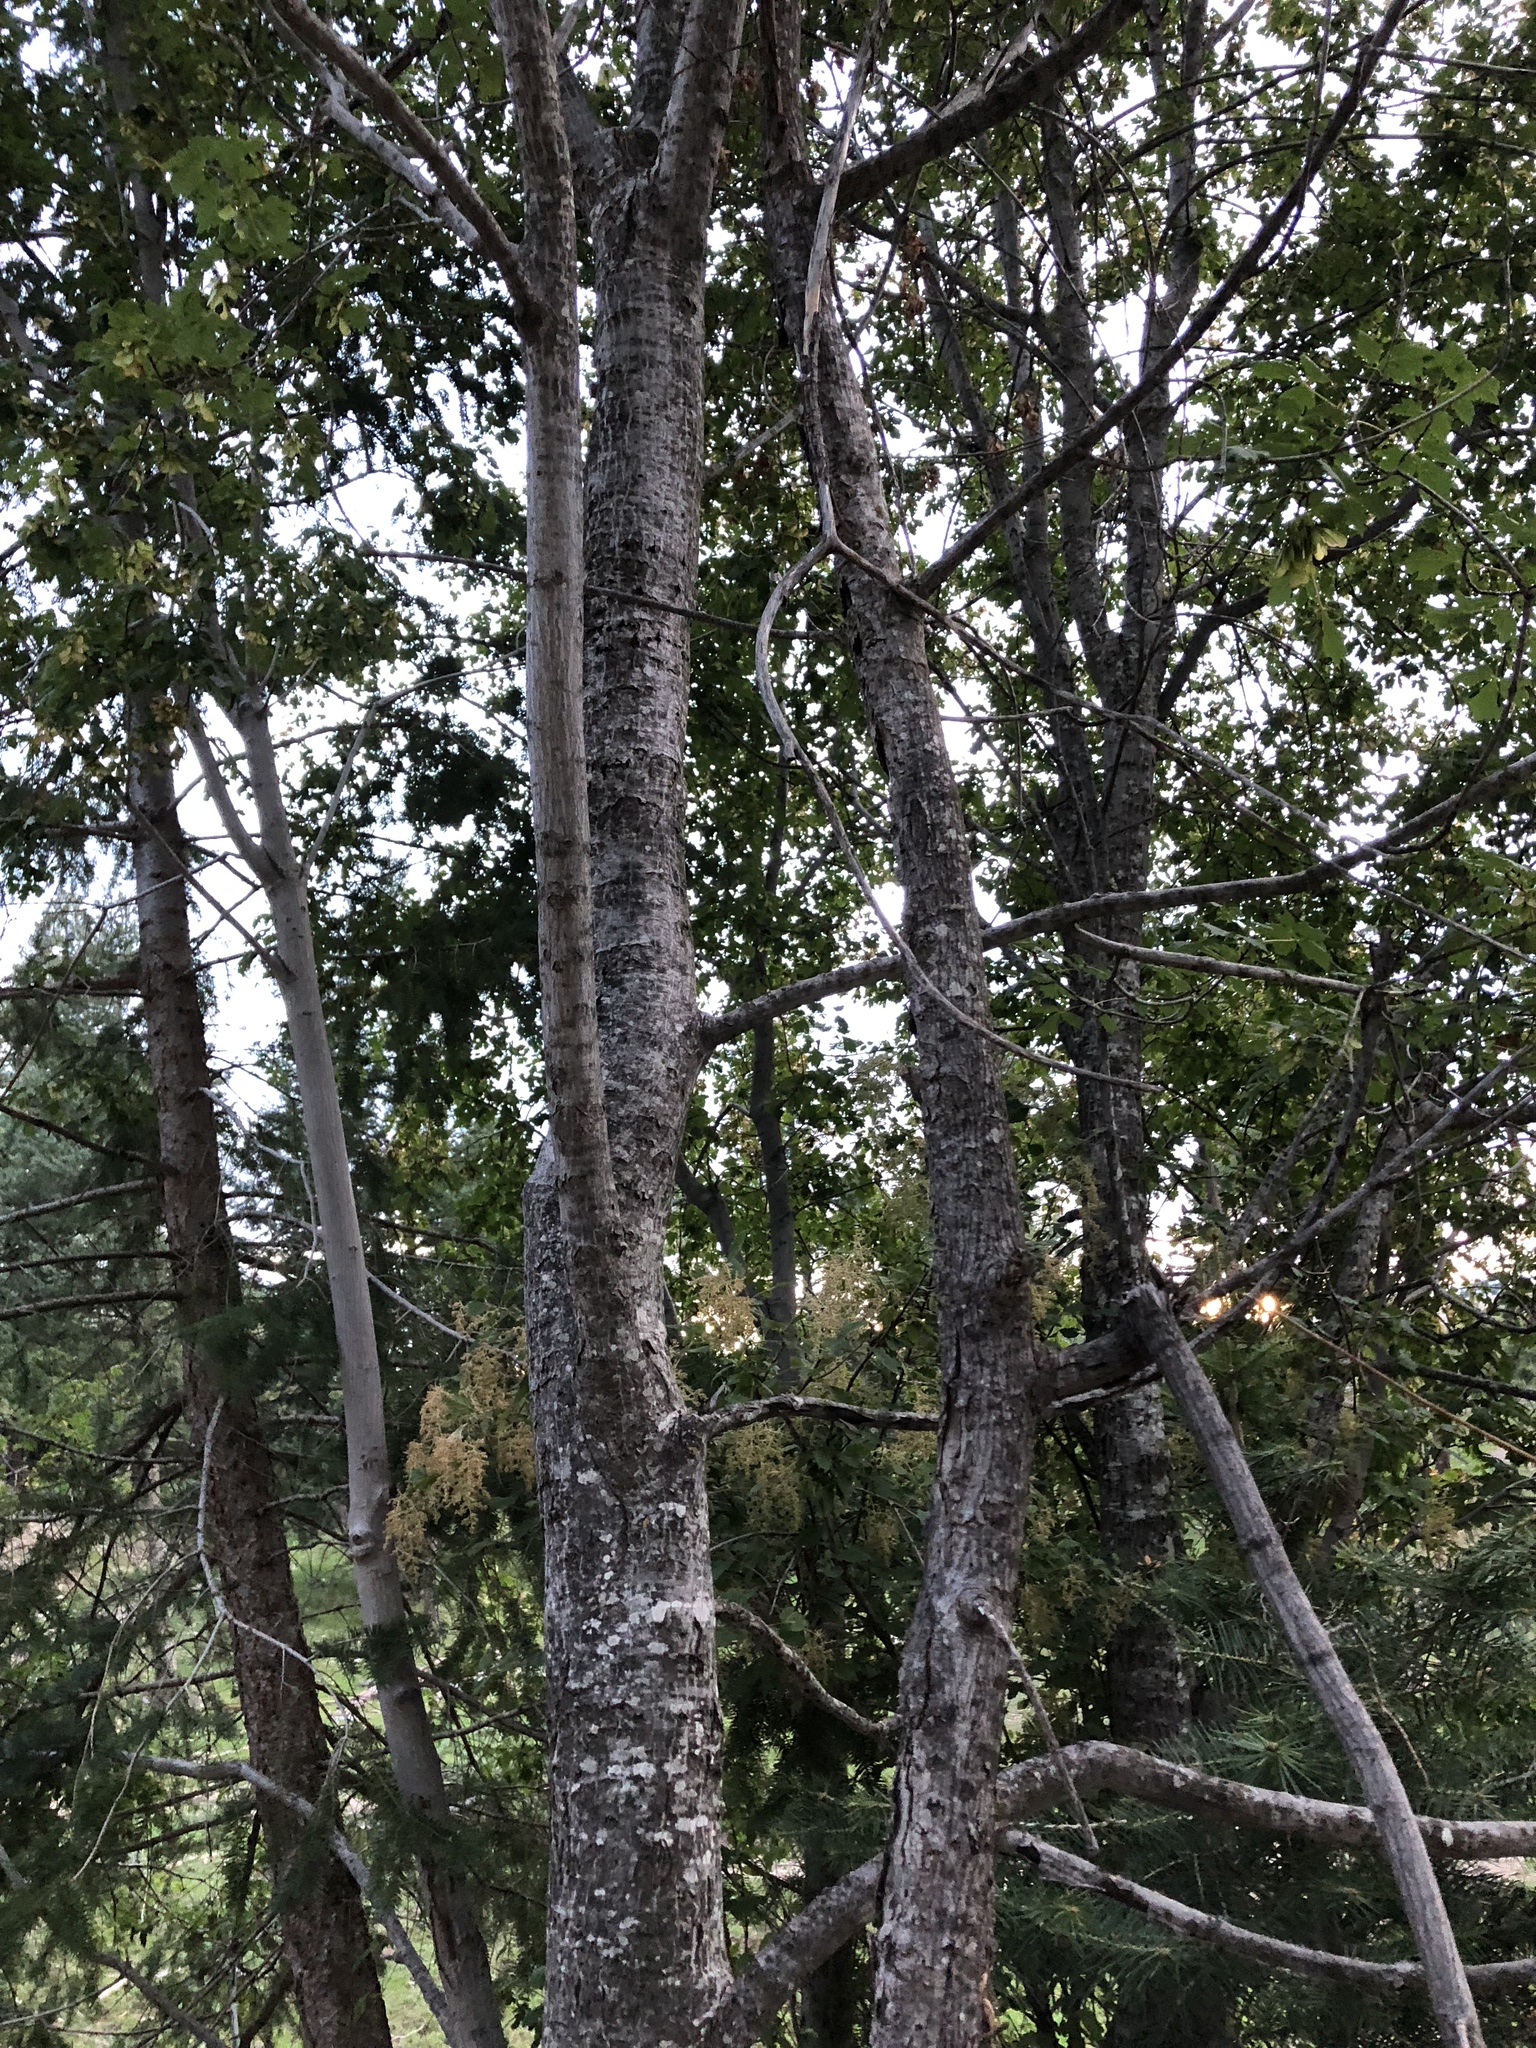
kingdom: Plantae
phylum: Tracheophyta
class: Magnoliopsida
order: Sapindales
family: Sapindaceae
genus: Acer
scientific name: Acer glabrum
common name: Rocky mountain maple
